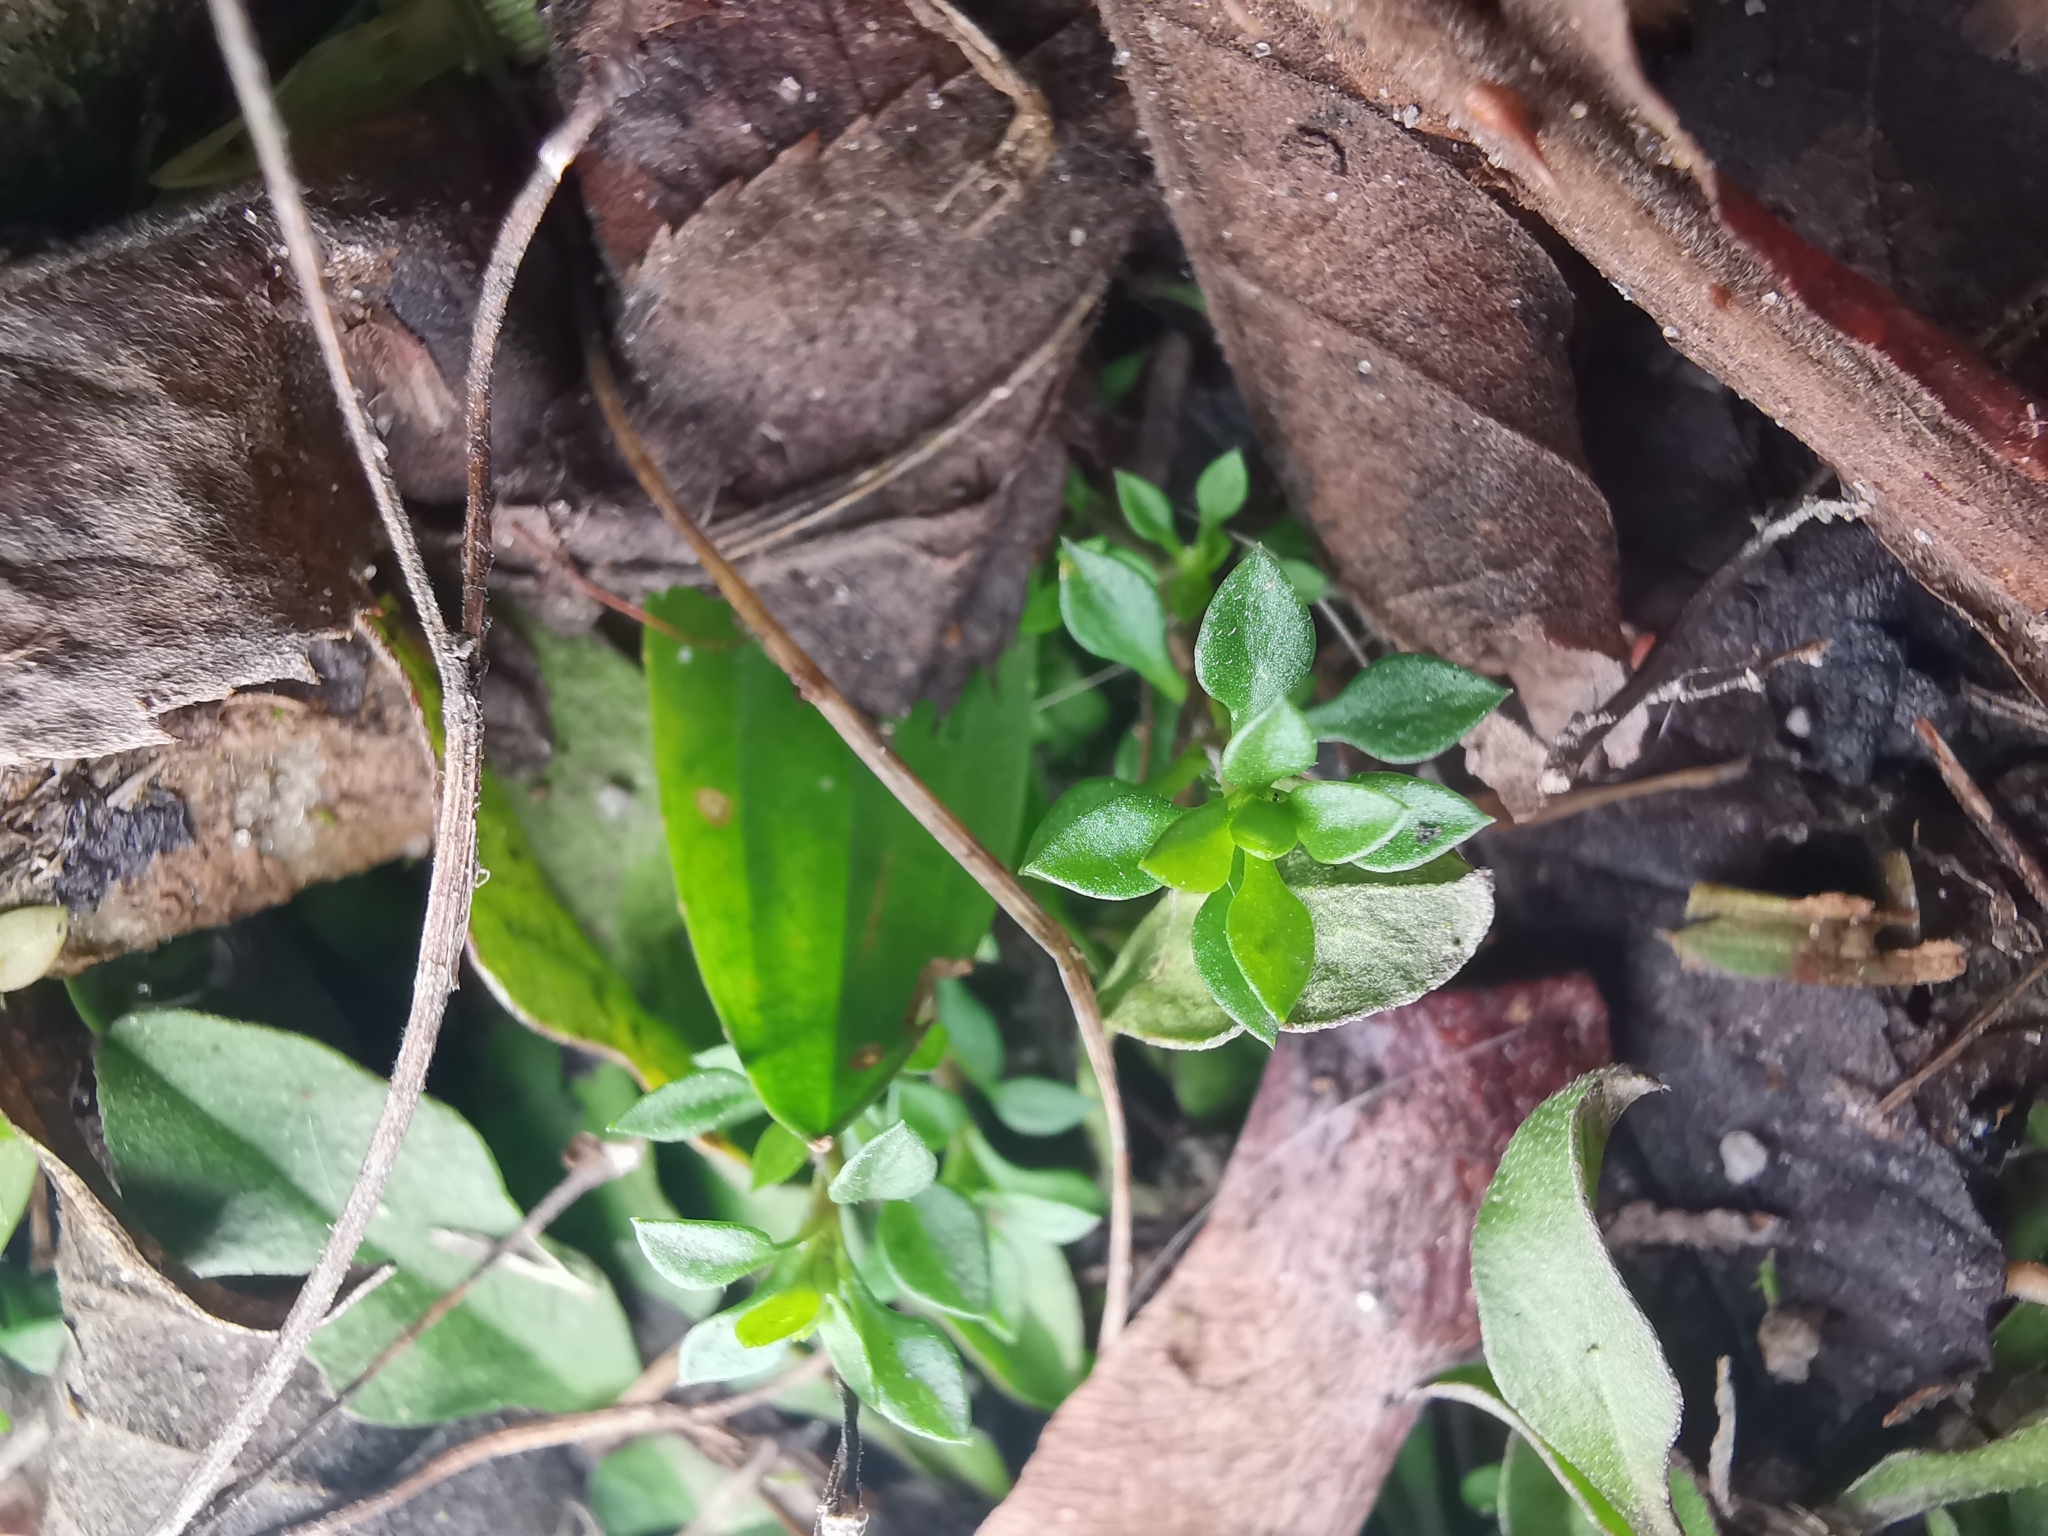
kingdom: Plantae
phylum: Tracheophyta
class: Magnoliopsida
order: Caryophyllales
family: Caryophyllaceae
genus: Arenaria
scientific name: Arenaria serpyllifolia
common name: Thyme-leaved sandwort
